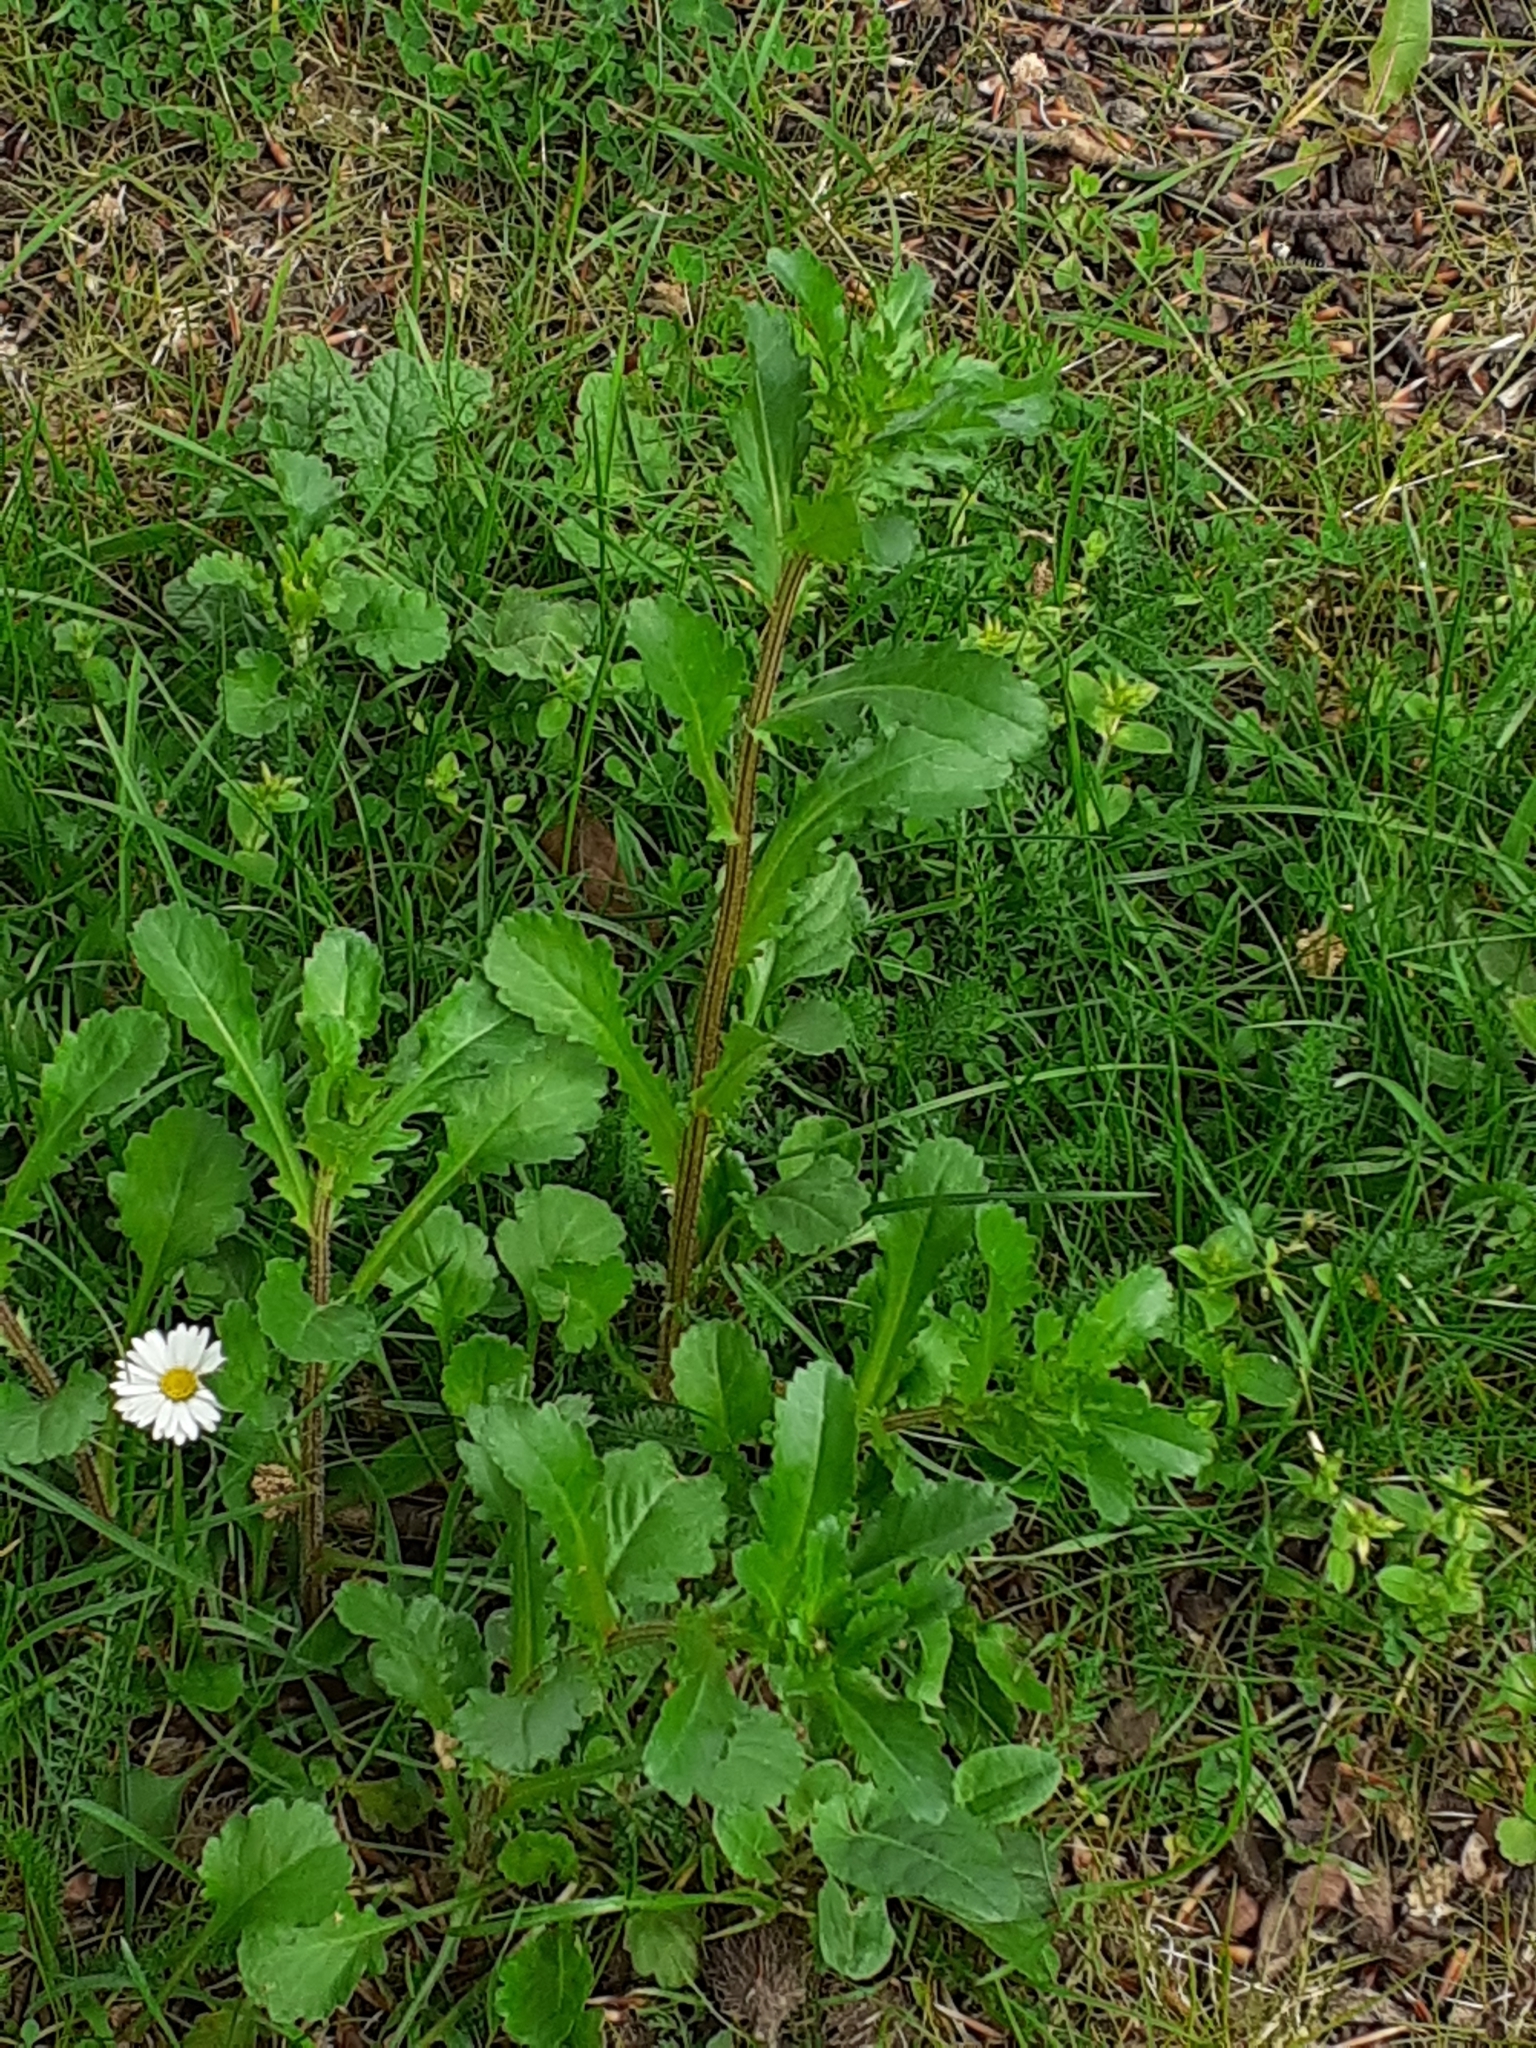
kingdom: Plantae
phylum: Tracheophyta
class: Magnoliopsida
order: Asterales
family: Asteraceae
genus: Leucanthemum
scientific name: Leucanthemum vulgare
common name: Oxeye daisy
